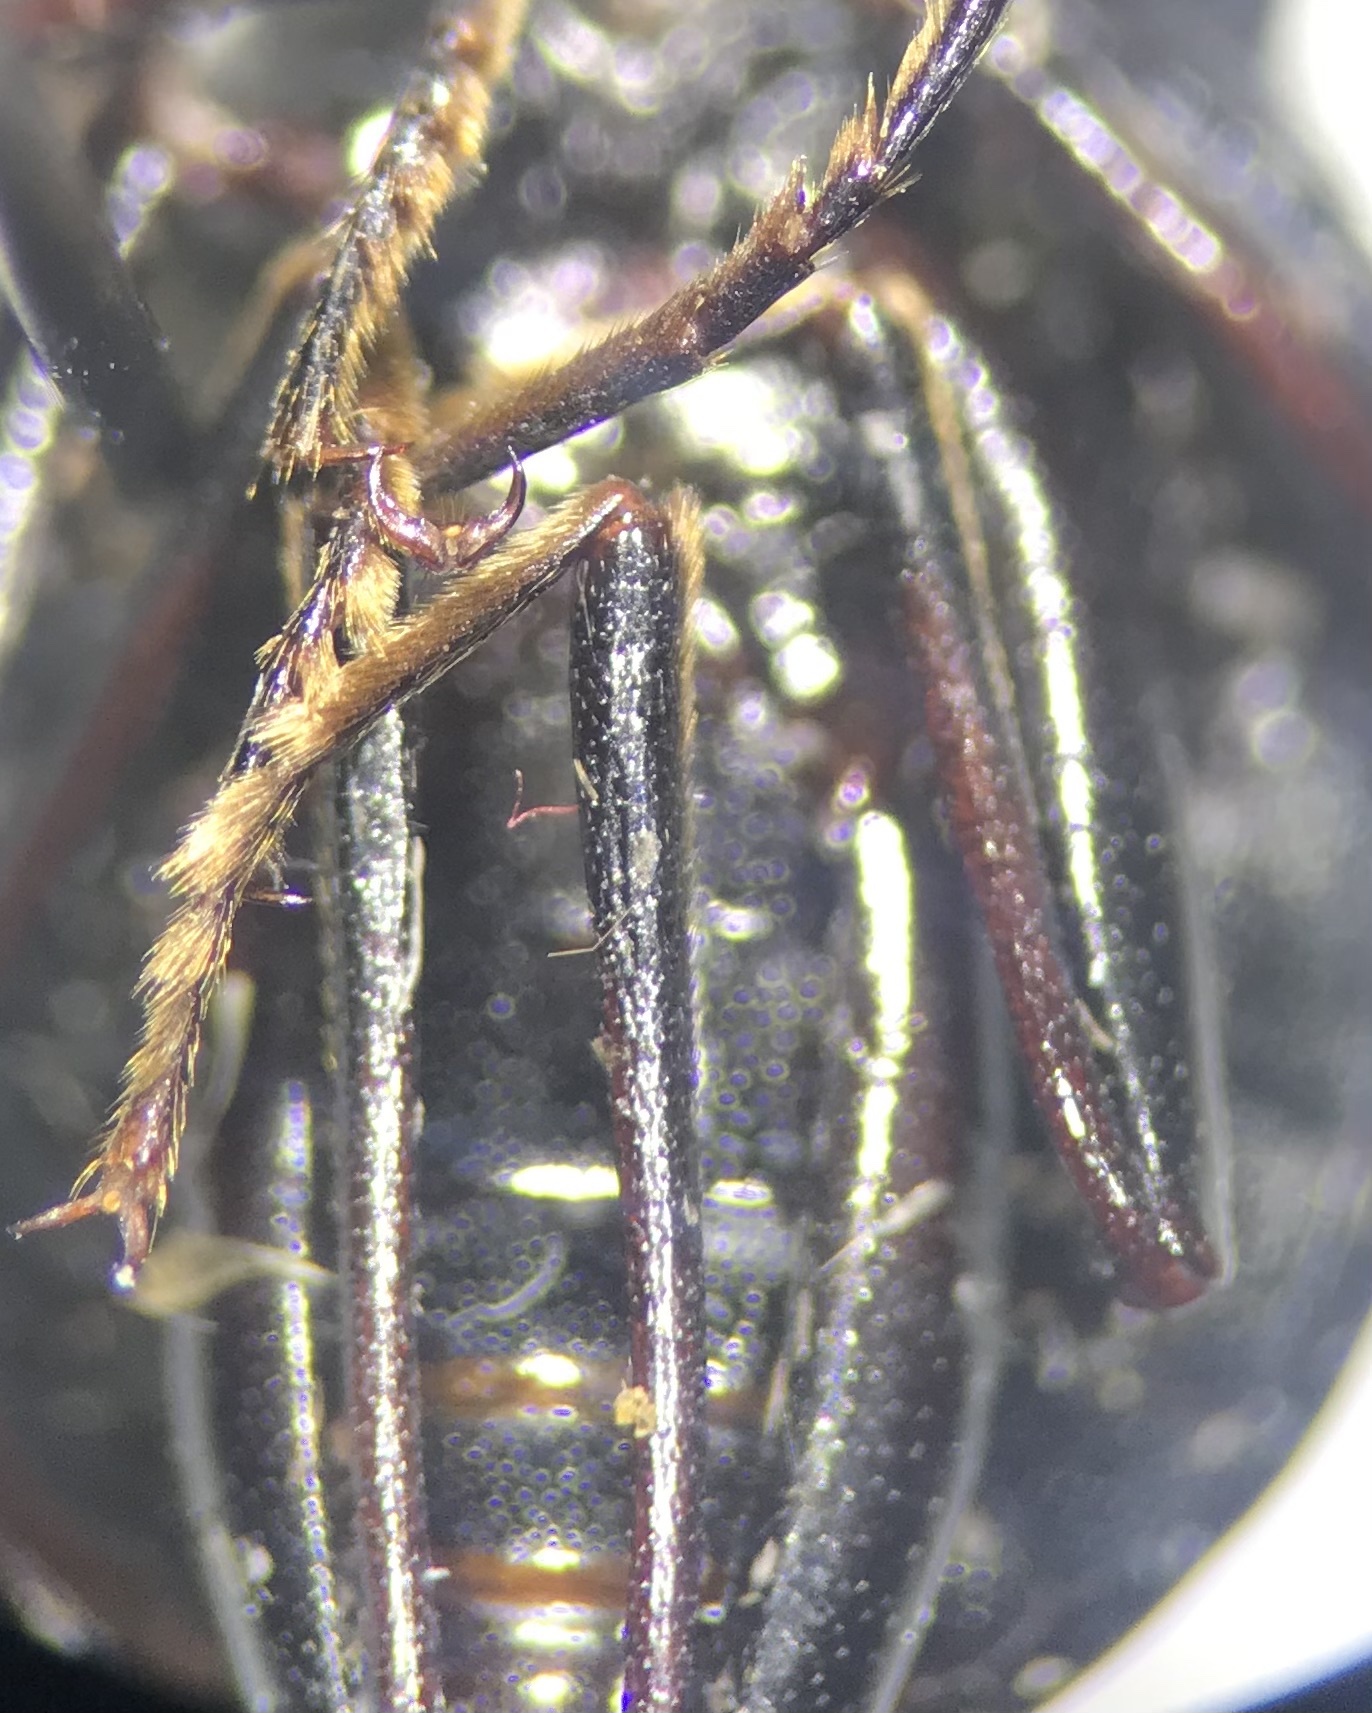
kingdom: Animalia
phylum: Arthropoda
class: Insecta
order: Coleoptera
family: Tenebrionidae
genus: Meracantha
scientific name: Meracantha contracta
